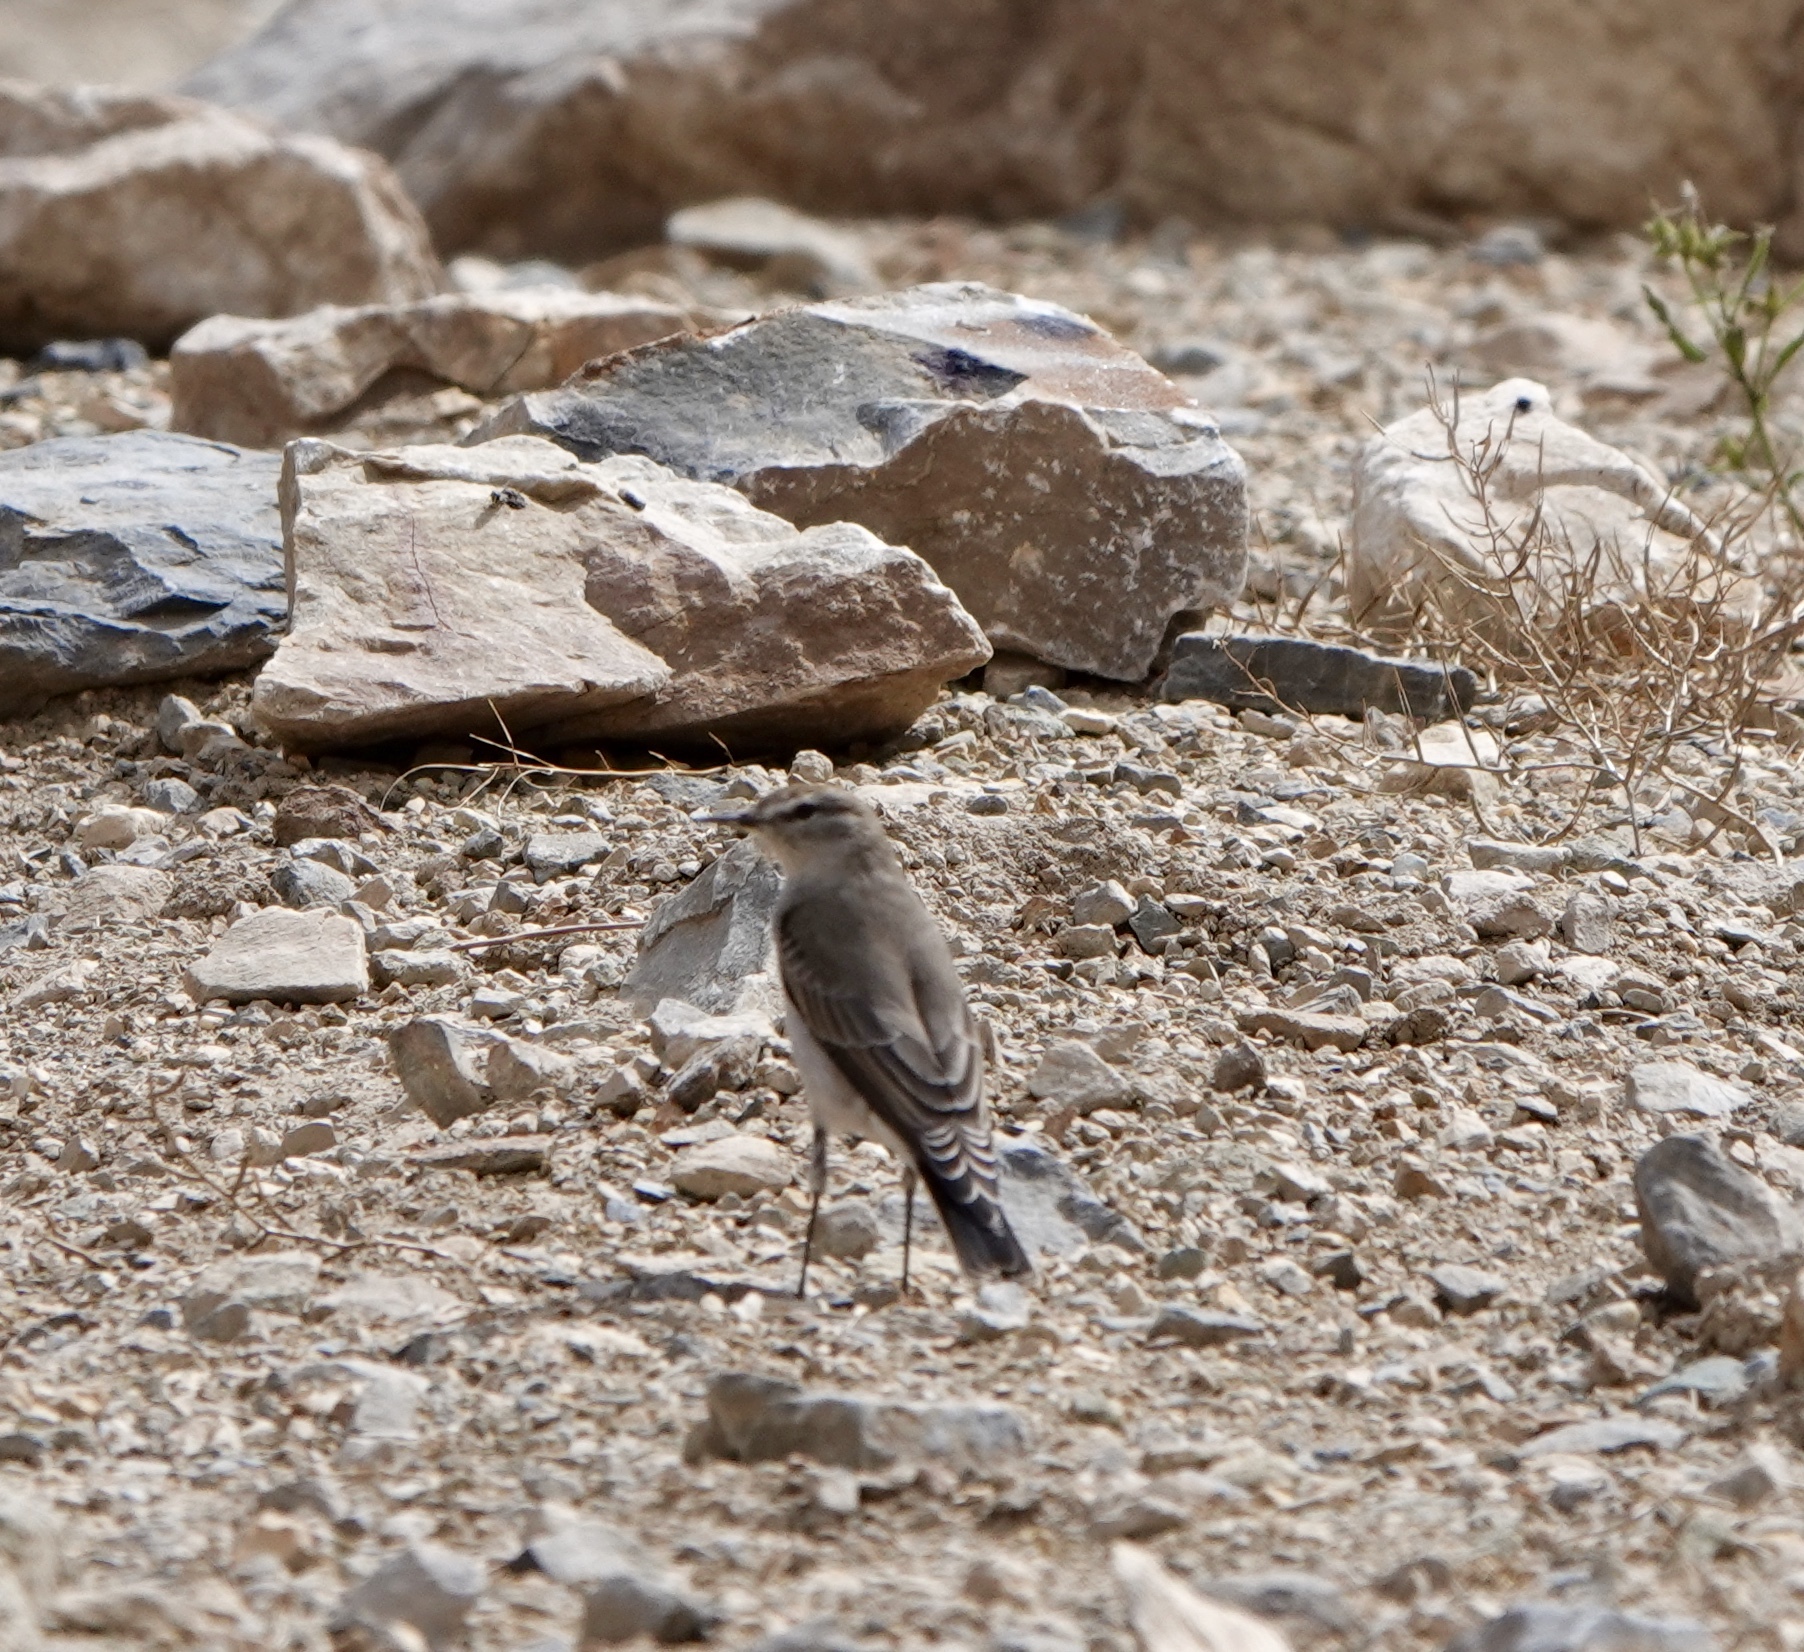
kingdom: Animalia
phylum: Chordata
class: Aves
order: Passeriformes
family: Tyrannidae
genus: Muscisaxicola
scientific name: Muscisaxicola albilora
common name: White-browed ground tyrant
